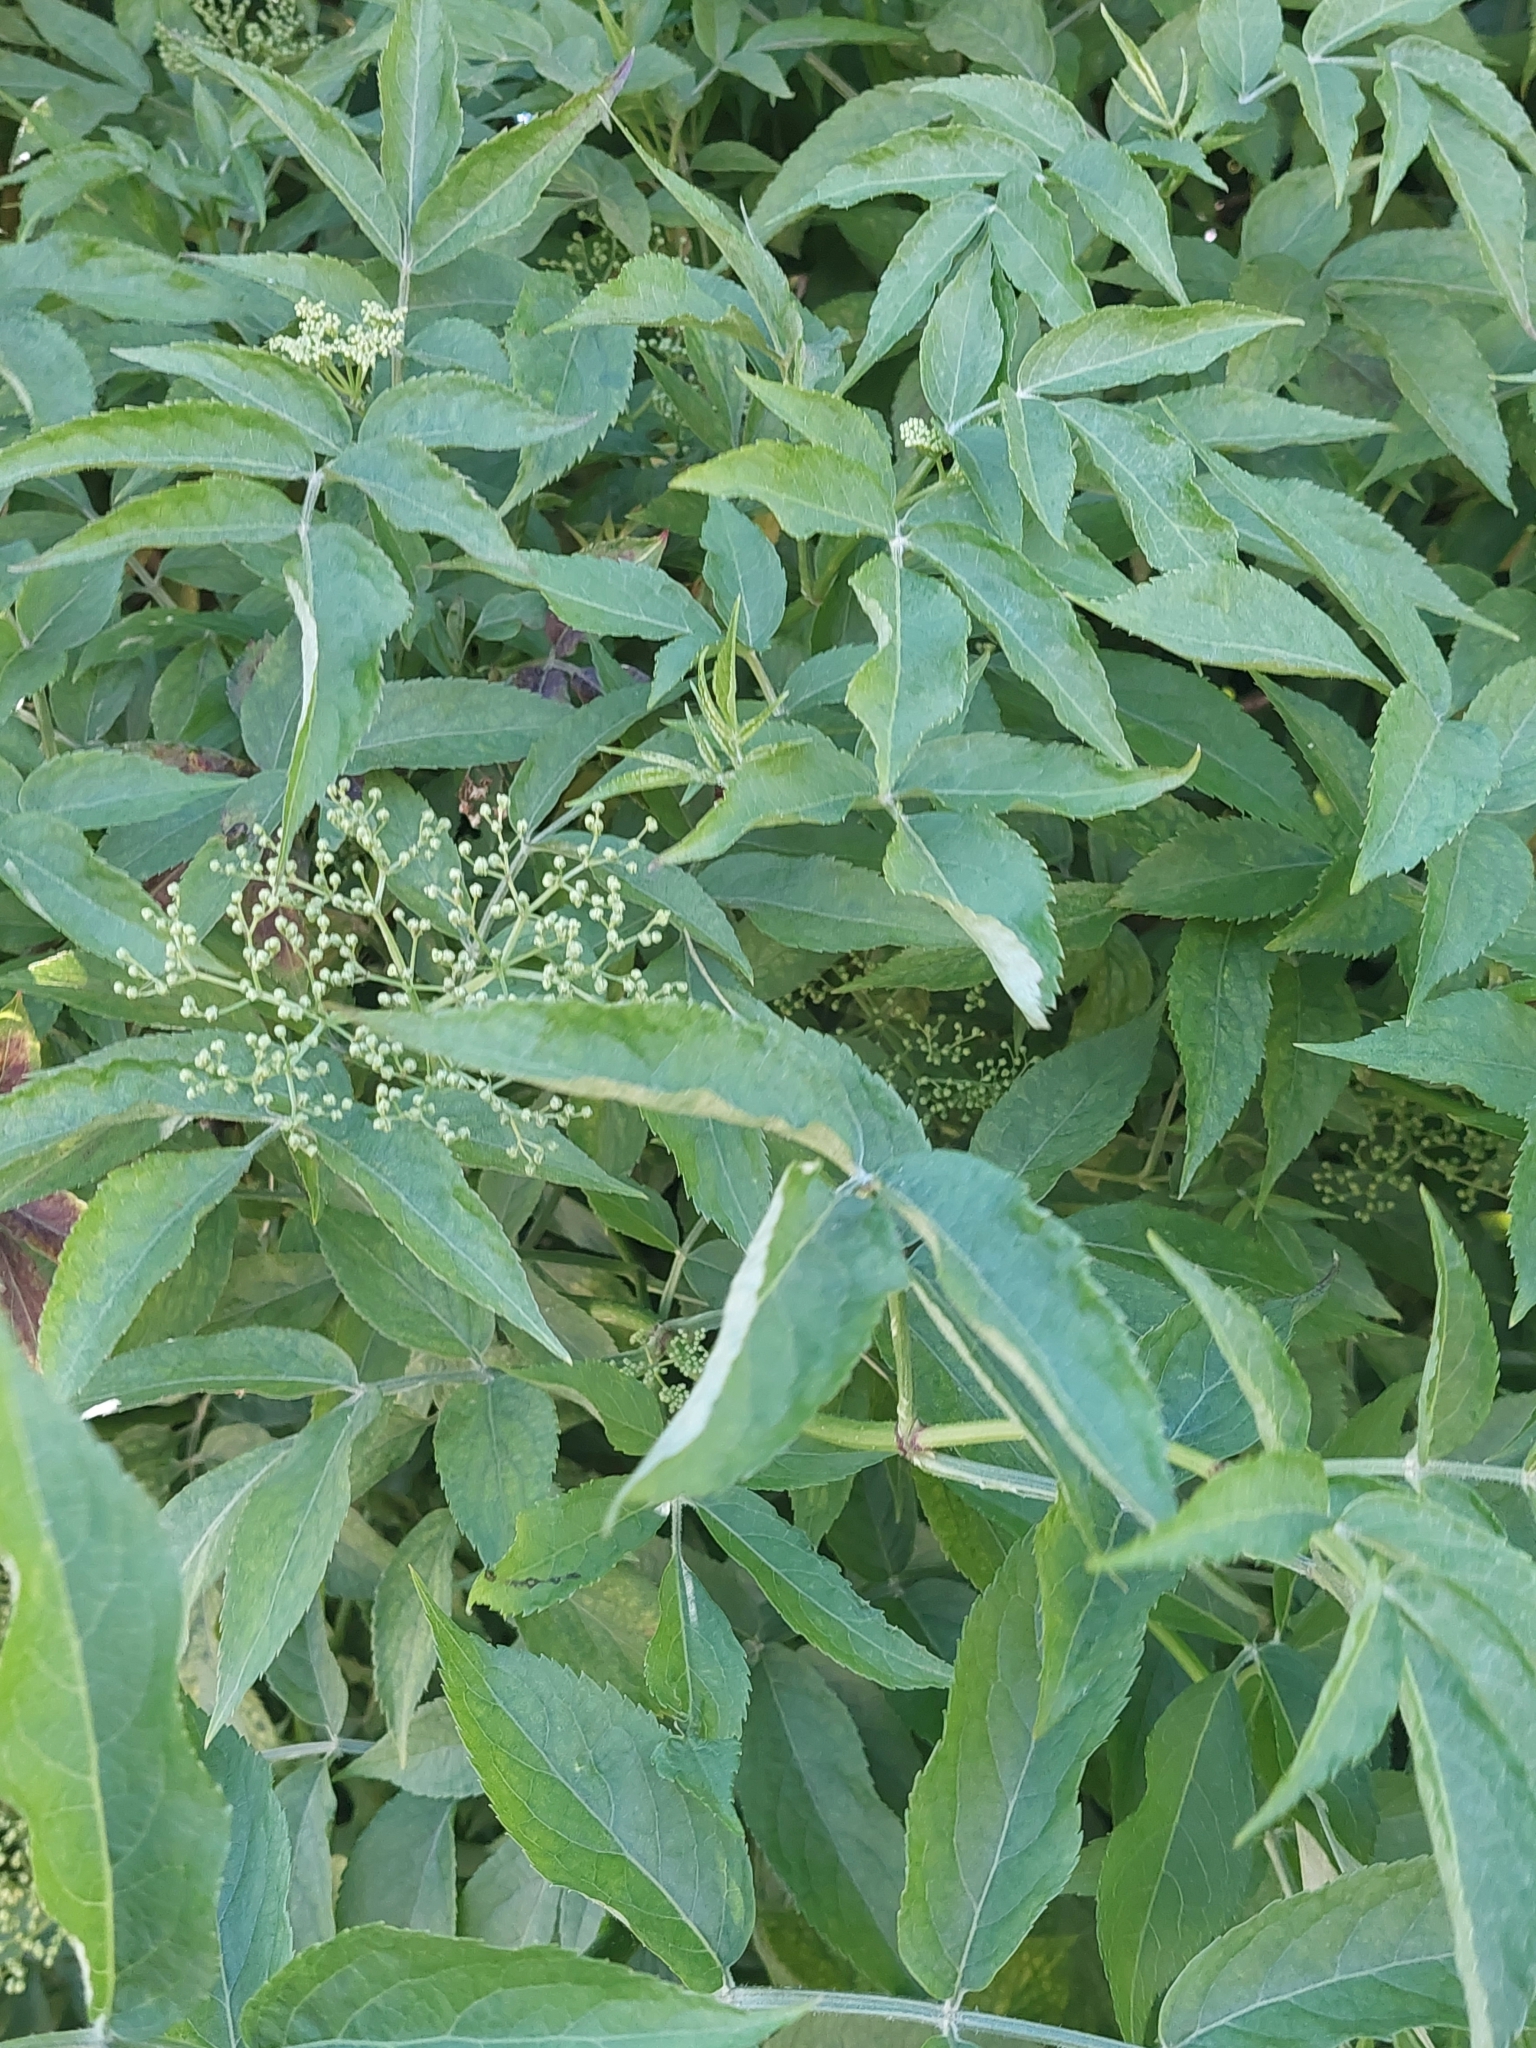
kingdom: Plantae
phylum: Tracheophyta
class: Magnoliopsida
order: Dipsacales
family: Viburnaceae
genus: Sambucus
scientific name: Sambucus nigra
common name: Elder
